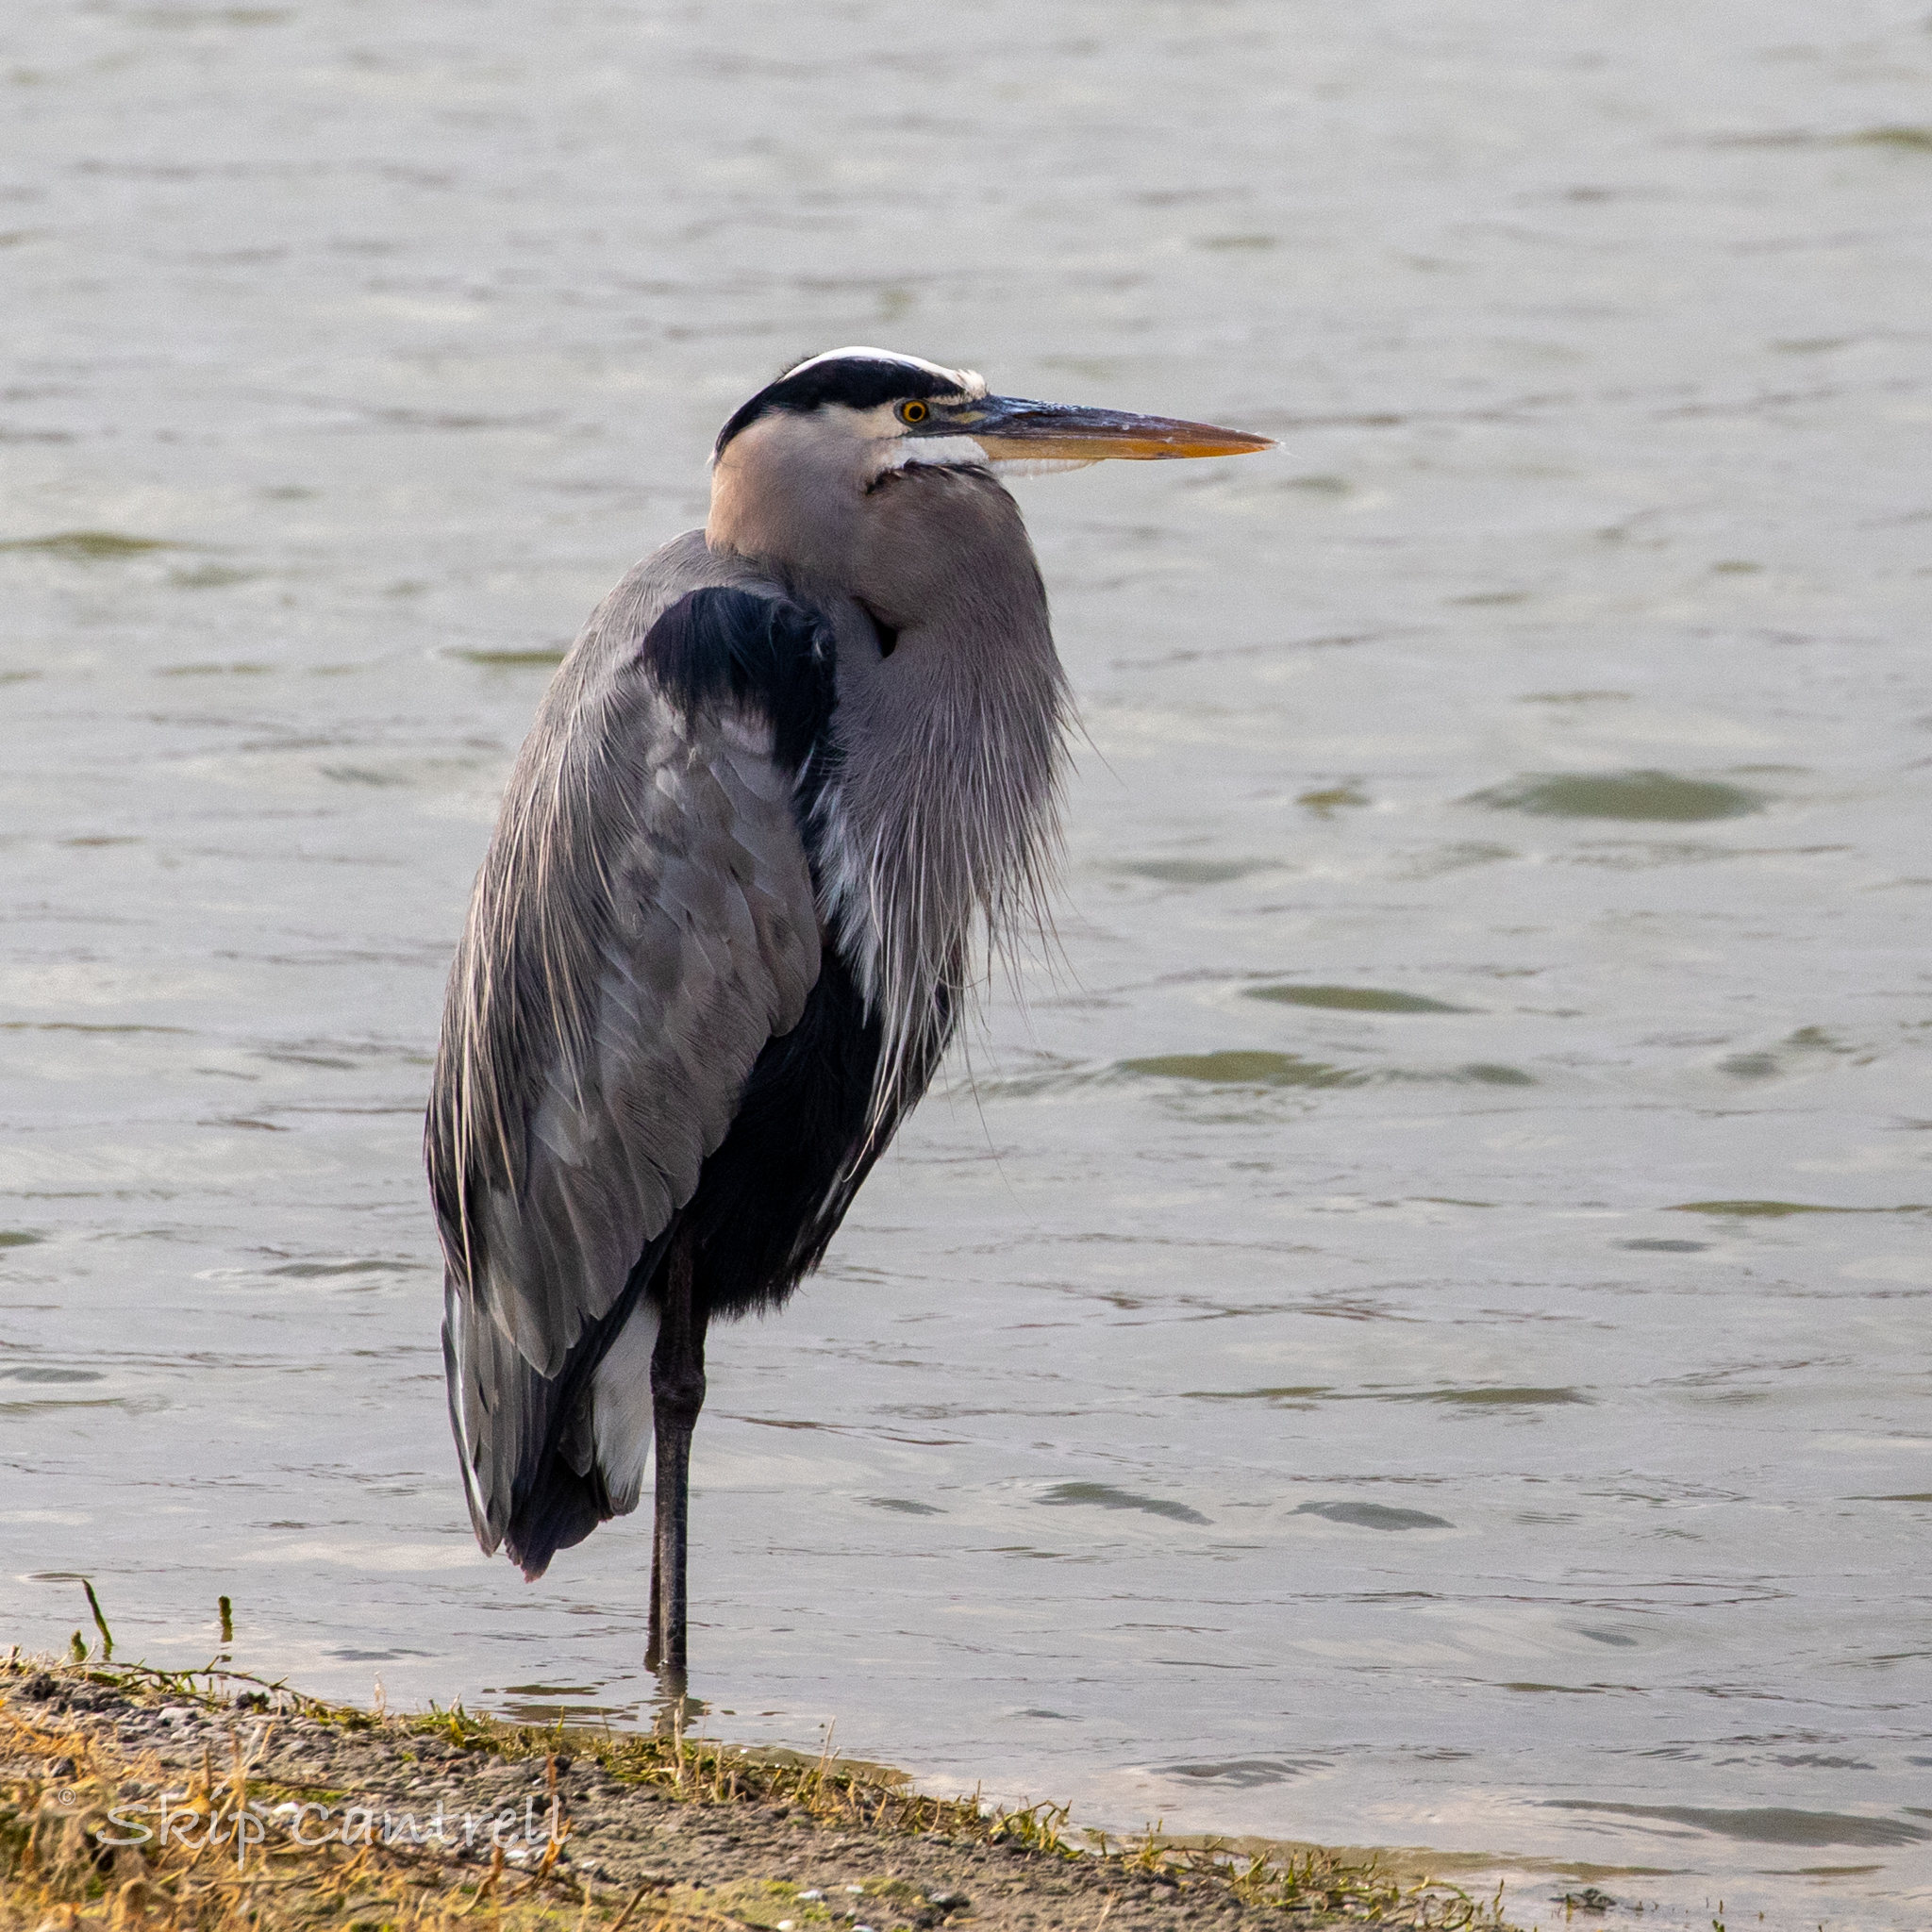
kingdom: Animalia
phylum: Chordata
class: Aves
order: Pelecaniformes
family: Ardeidae
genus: Ardea
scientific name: Ardea herodias
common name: Great blue heron
